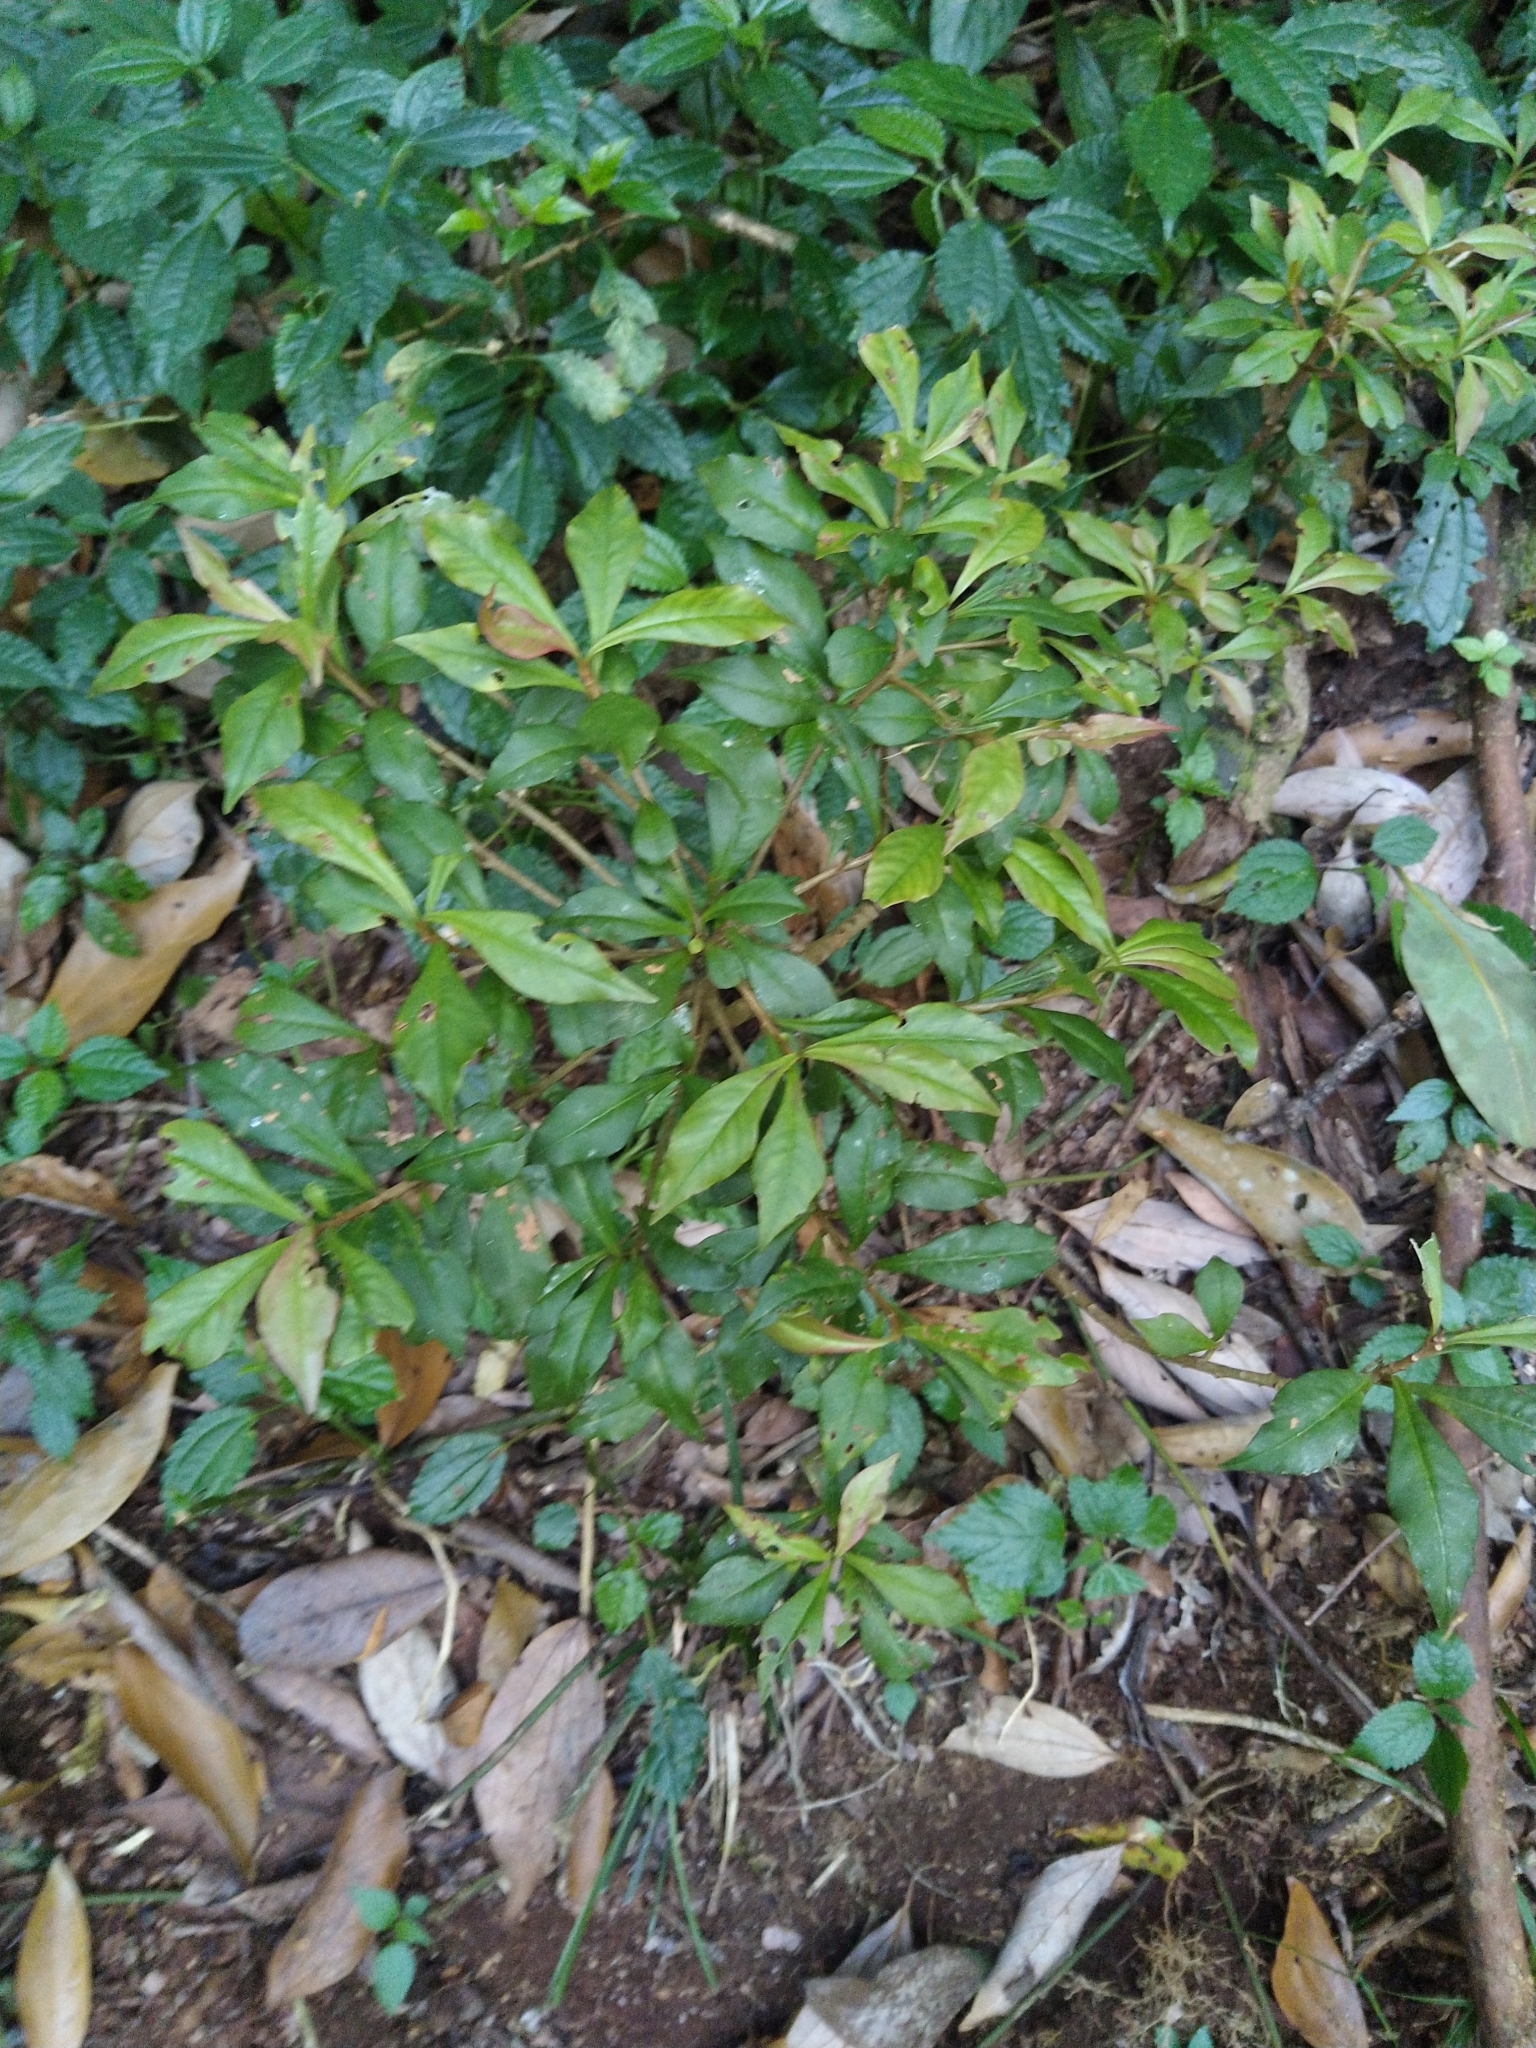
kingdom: Plantae
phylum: Tracheophyta
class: Magnoliopsida
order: Ericales
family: Primulaceae
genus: Ardisia
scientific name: Ardisia pauciflora
